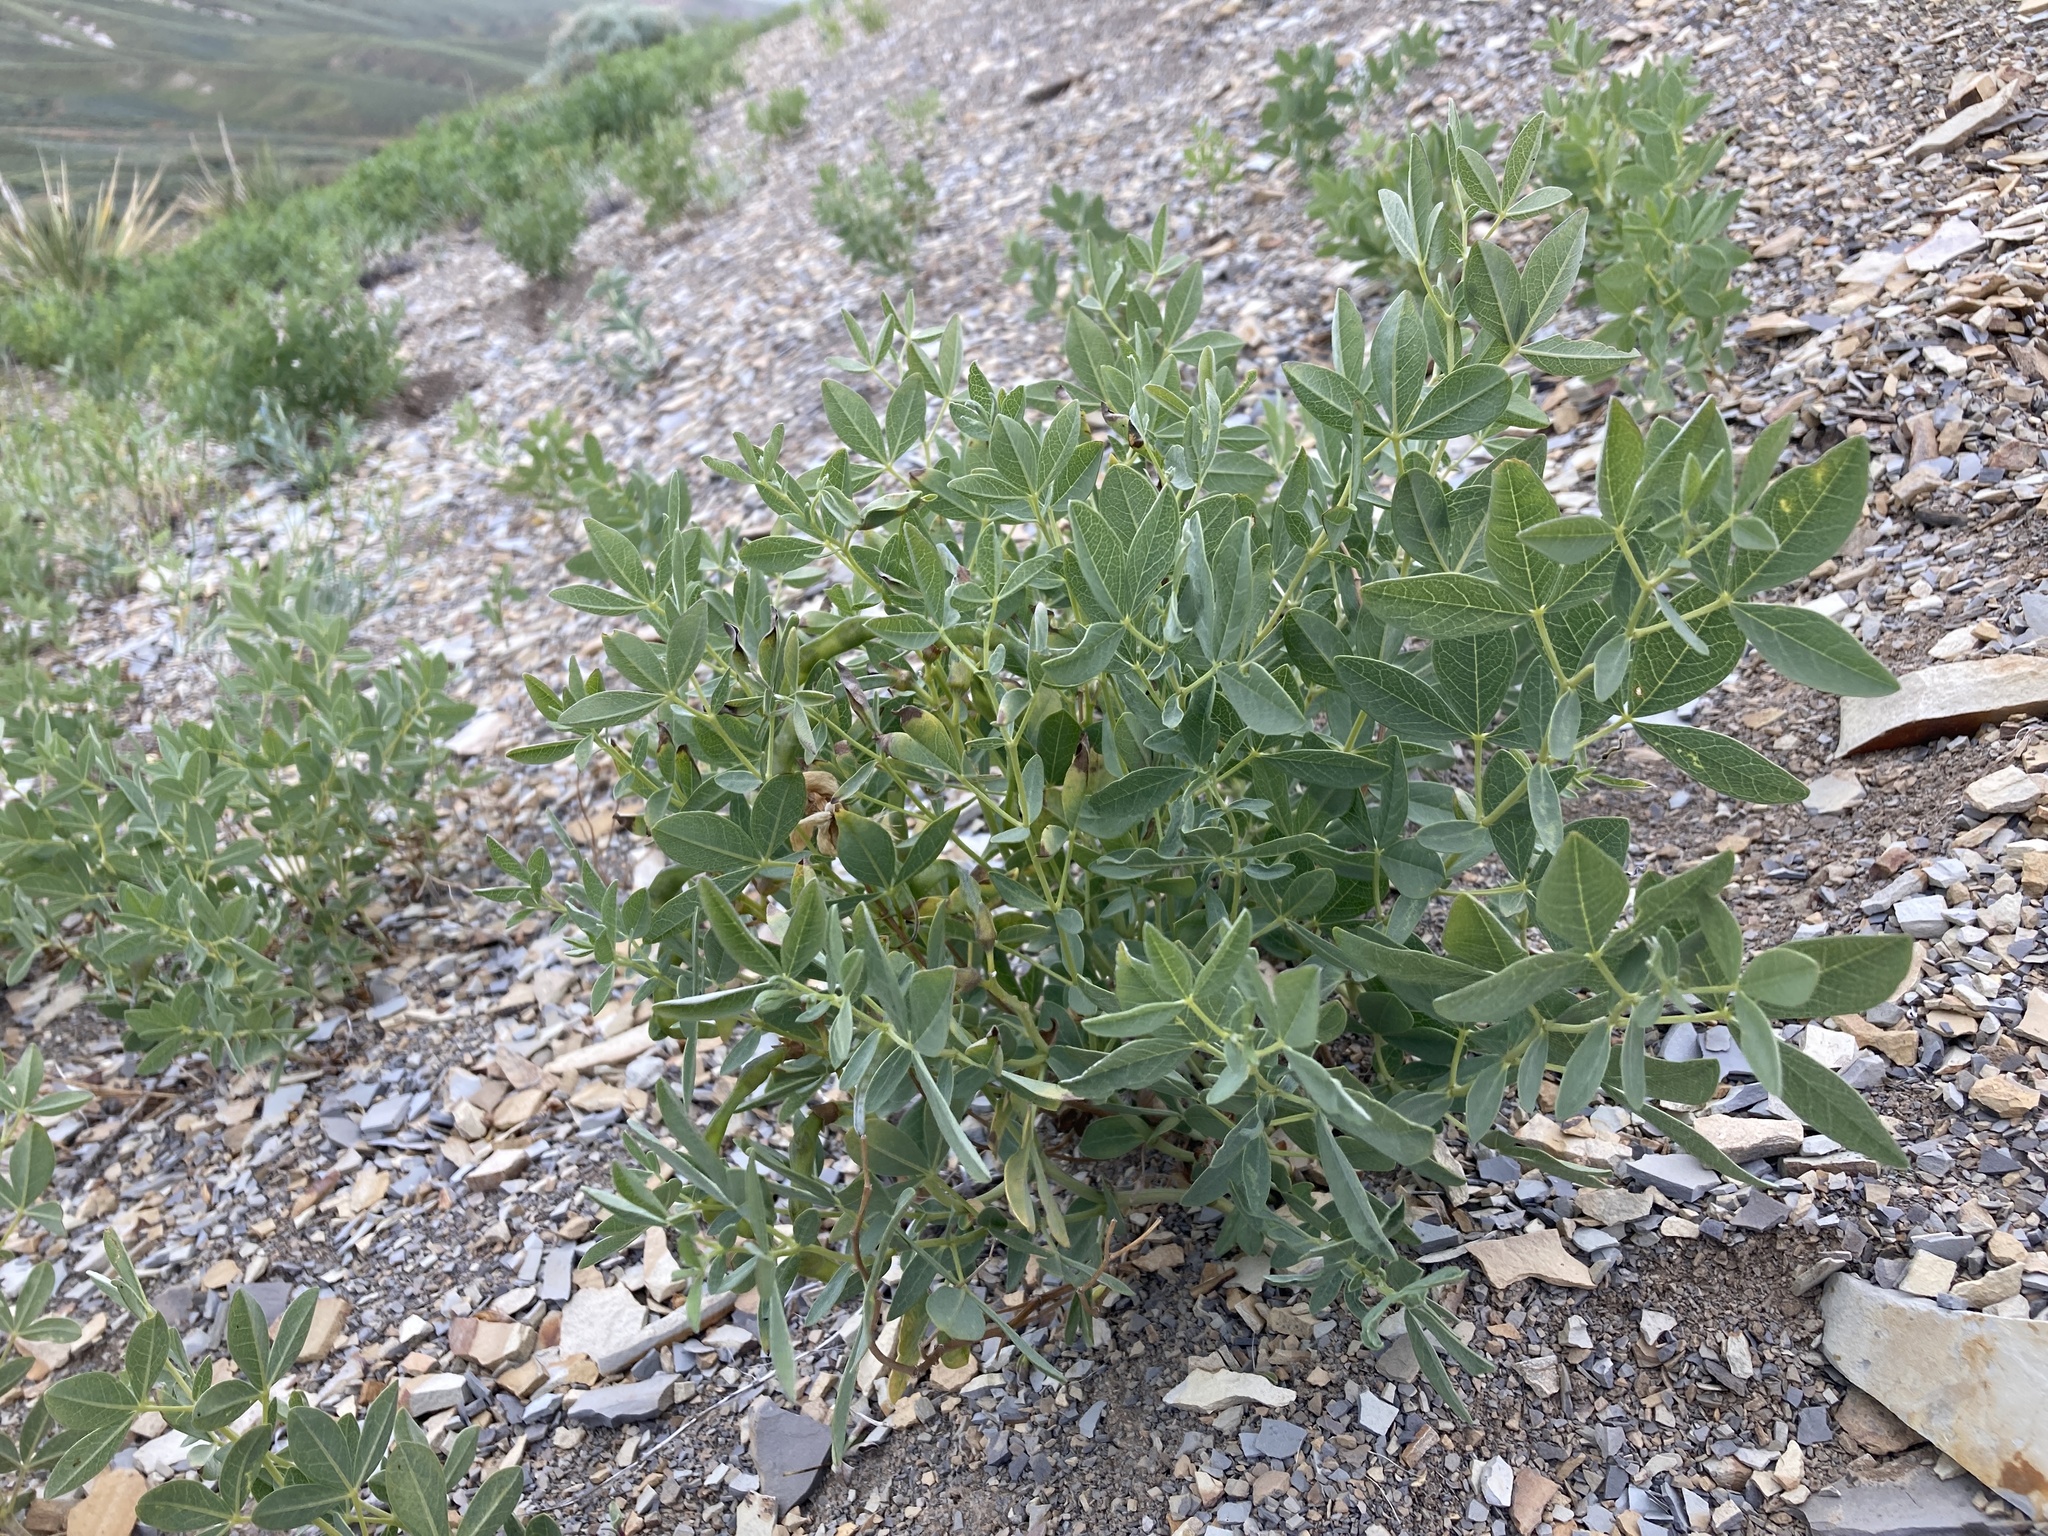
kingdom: Plantae
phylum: Tracheophyta
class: Magnoliopsida
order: Fabales
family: Fabaceae
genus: Thermopsis
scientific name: Thermopsis rhombifolia
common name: Circle-pod-pea
